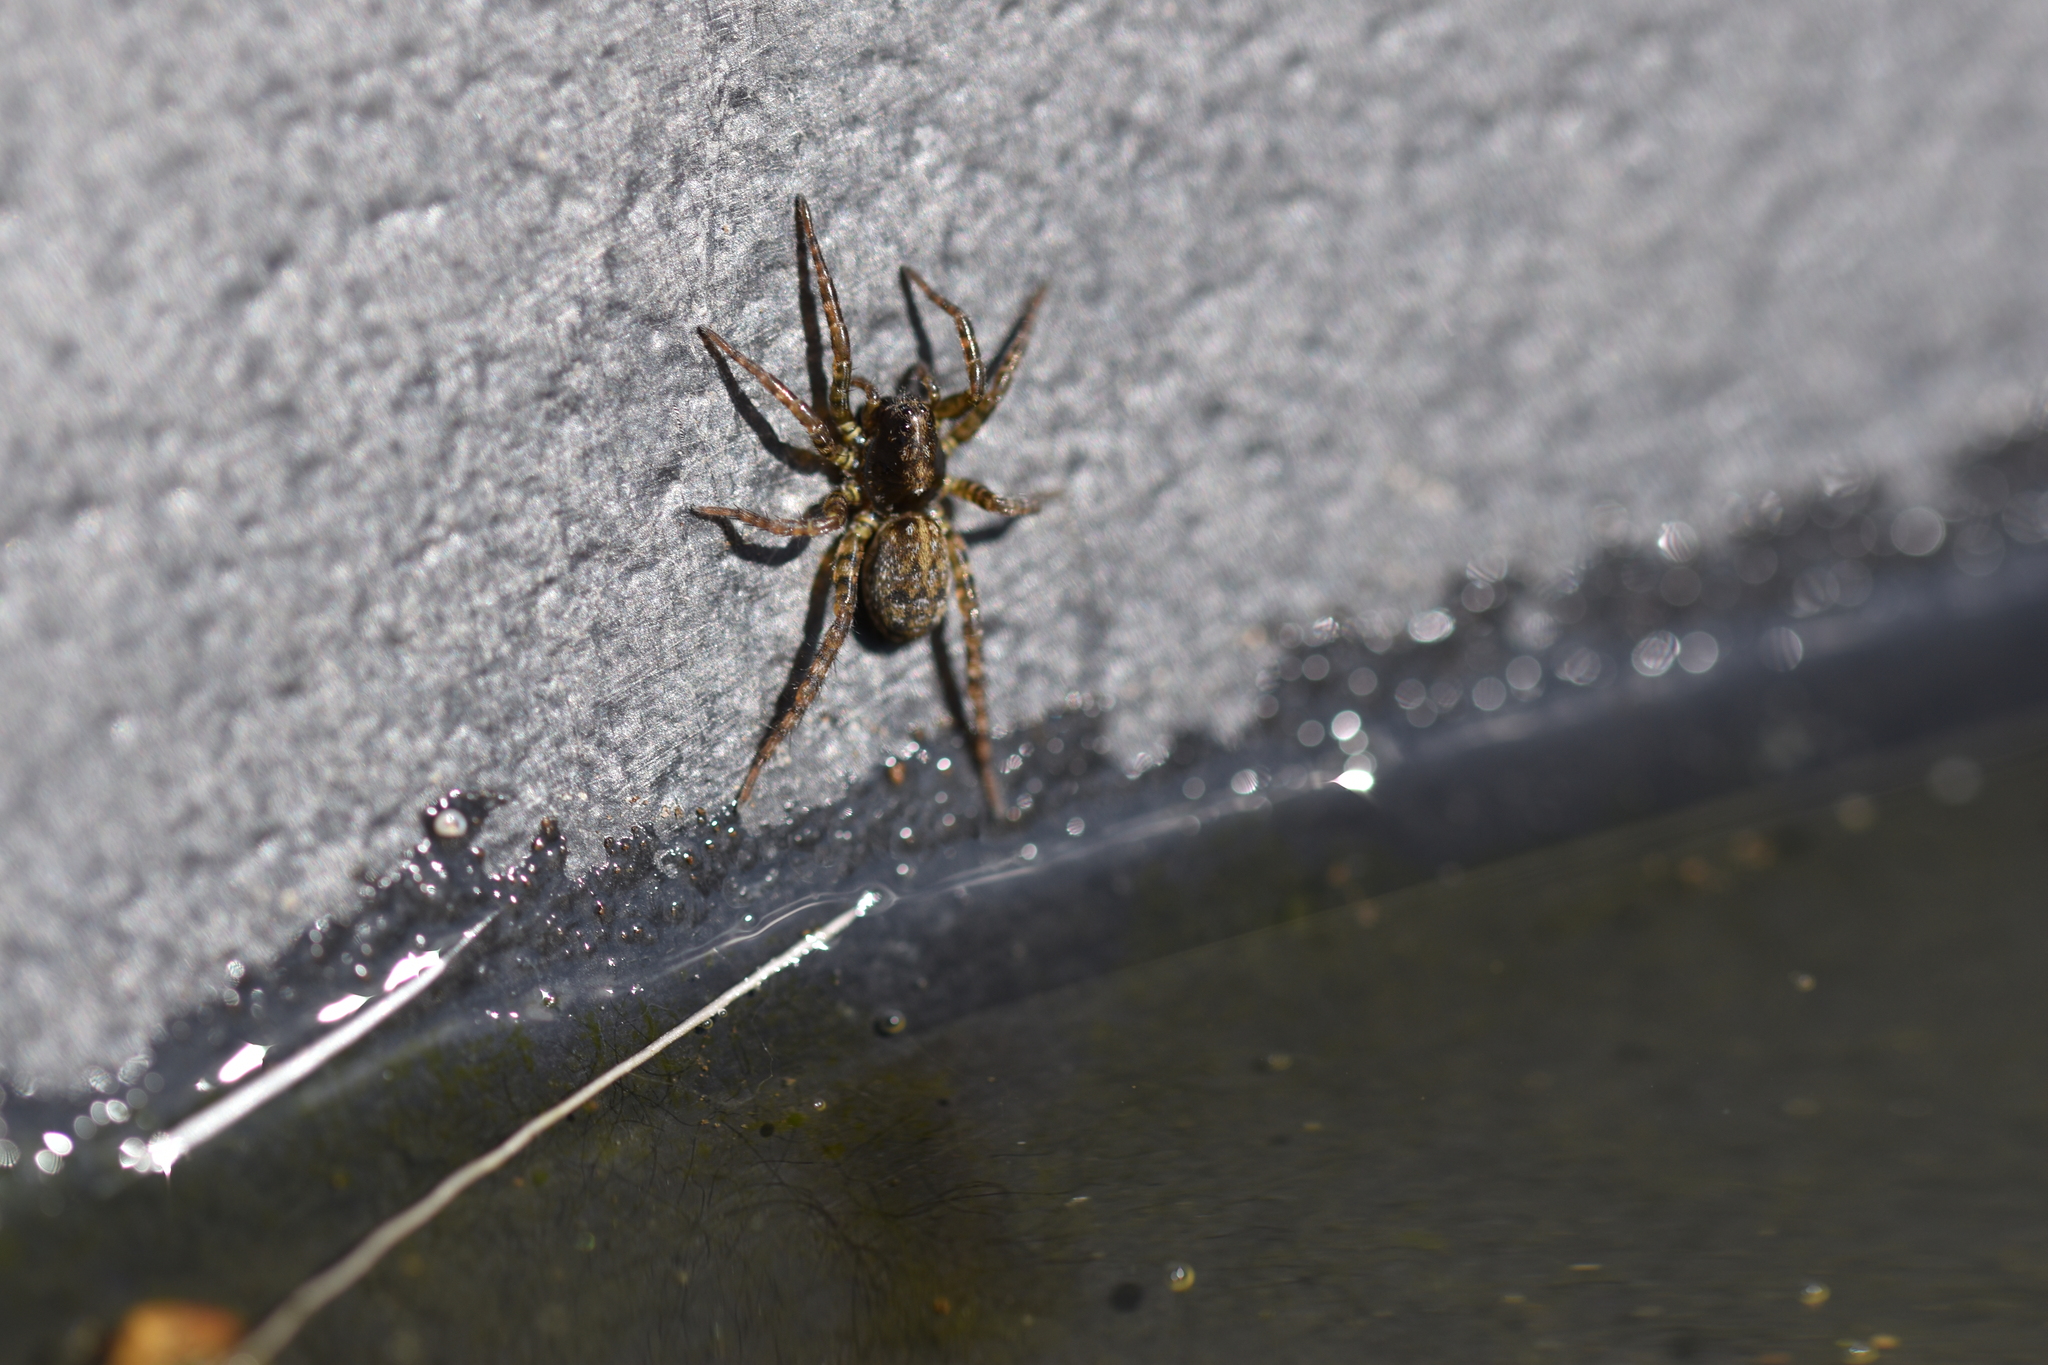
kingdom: Animalia
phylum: Arthropoda
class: Arachnida
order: Araneae
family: Lycosidae
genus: Arctosa
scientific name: Arctosa leopardus
